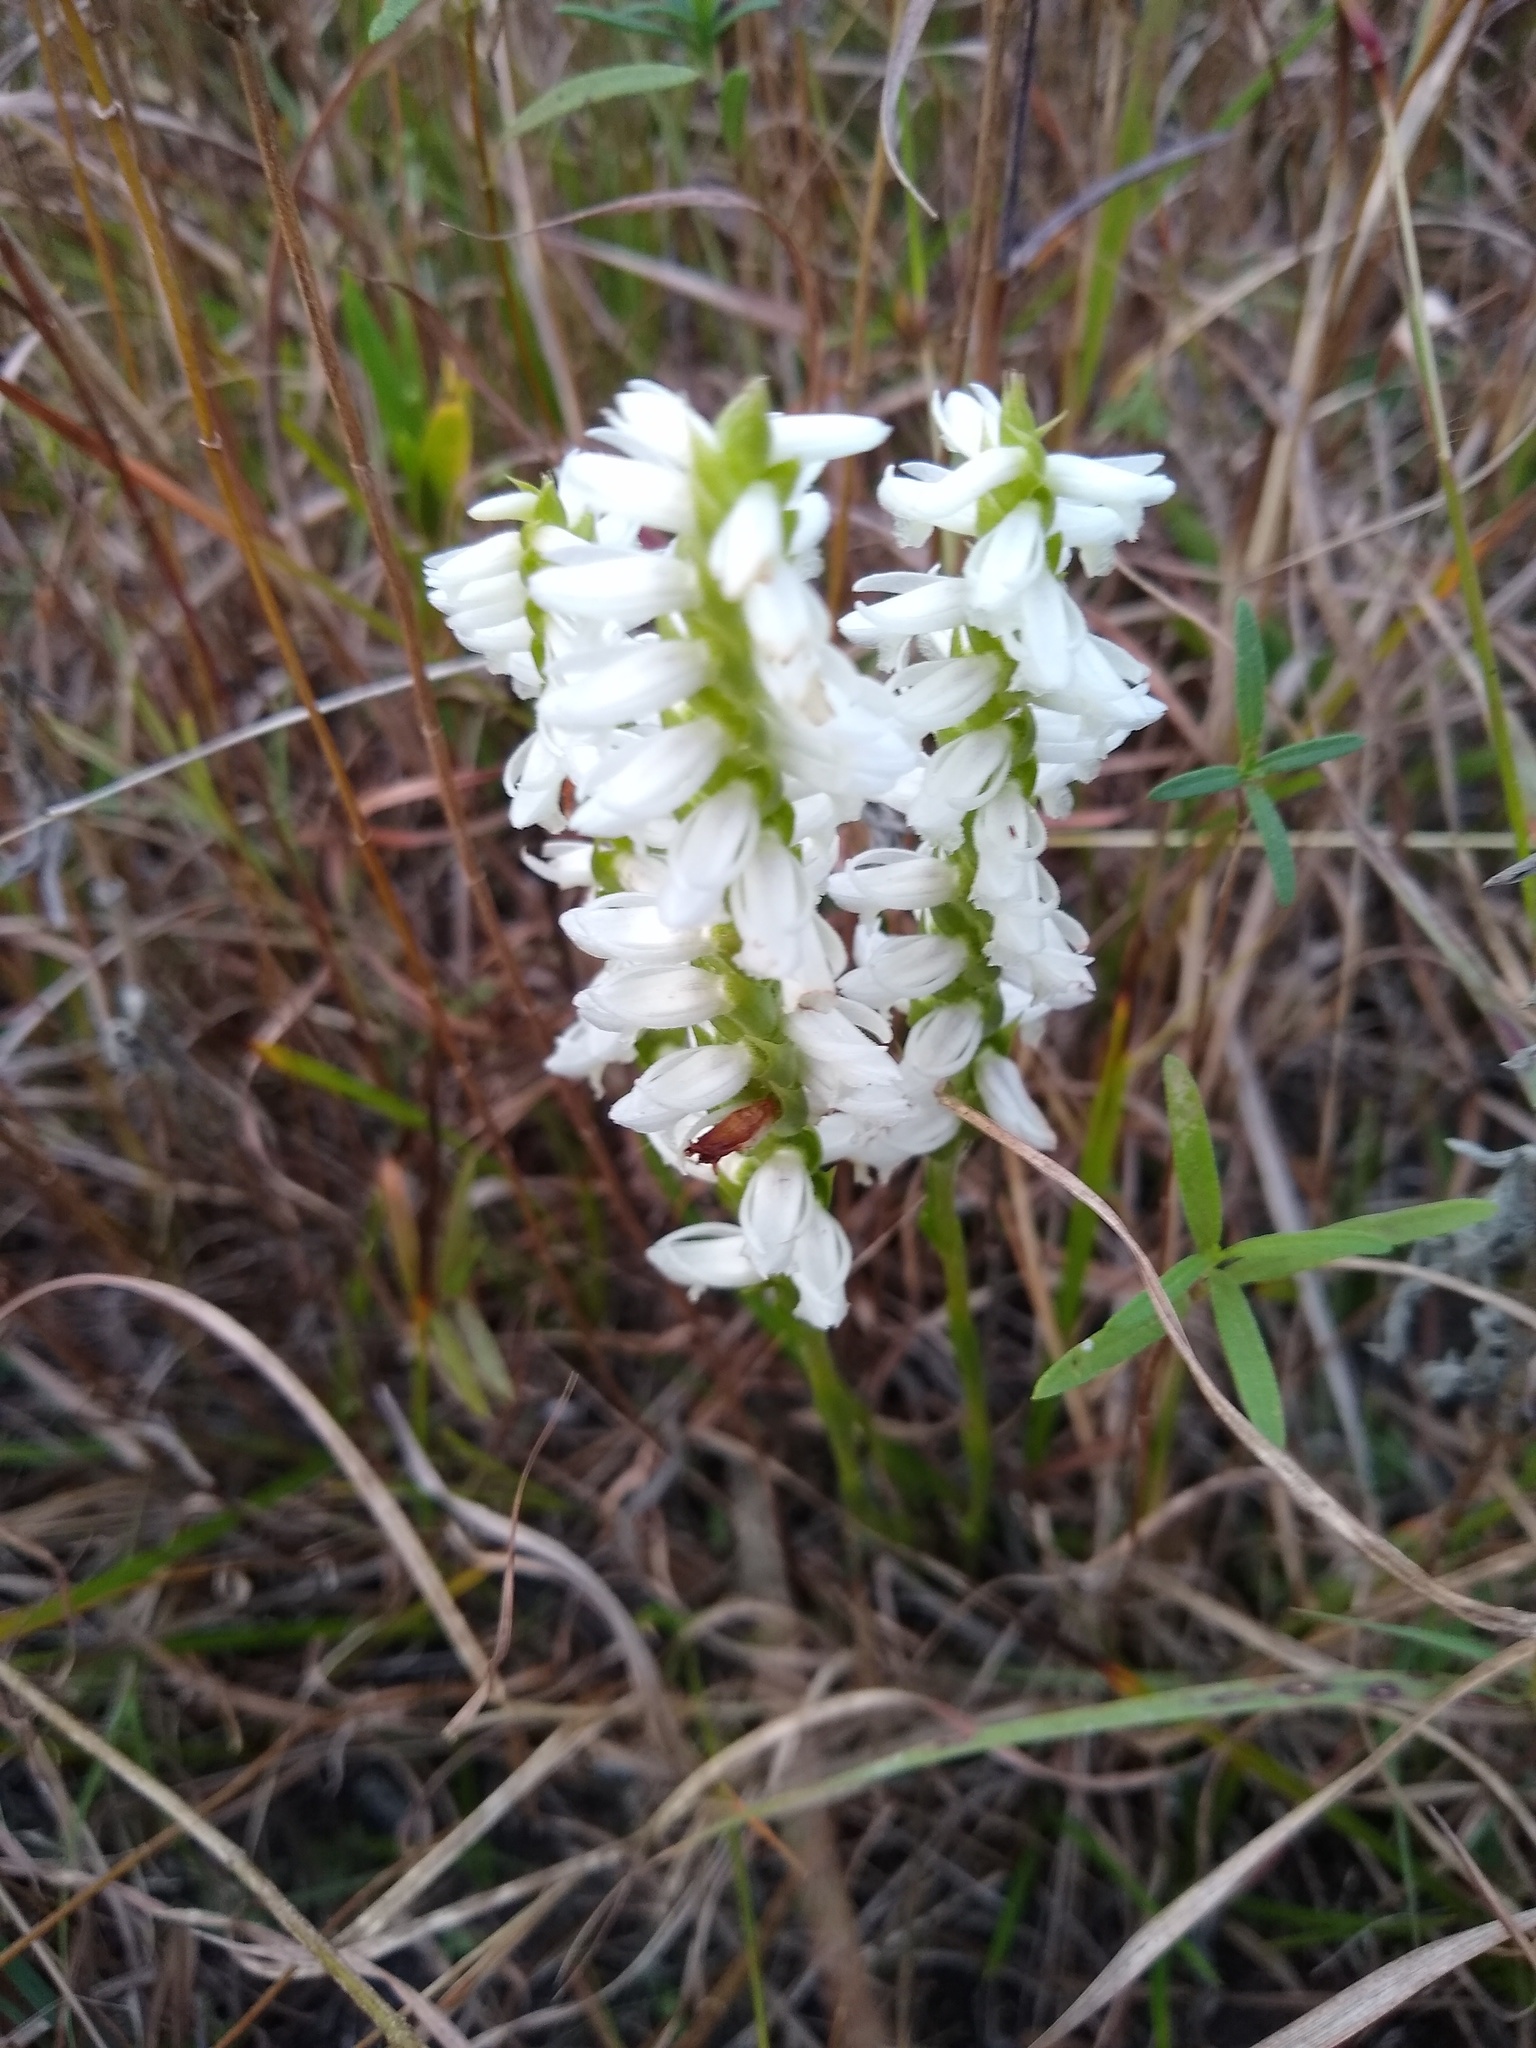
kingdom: Plantae
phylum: Tracheophyta
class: Liliopsida
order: Asparagales
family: Orchidaceae
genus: Spiranthes
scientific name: Spiranthes magnicamporum
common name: Great plains ladies'-tresses
